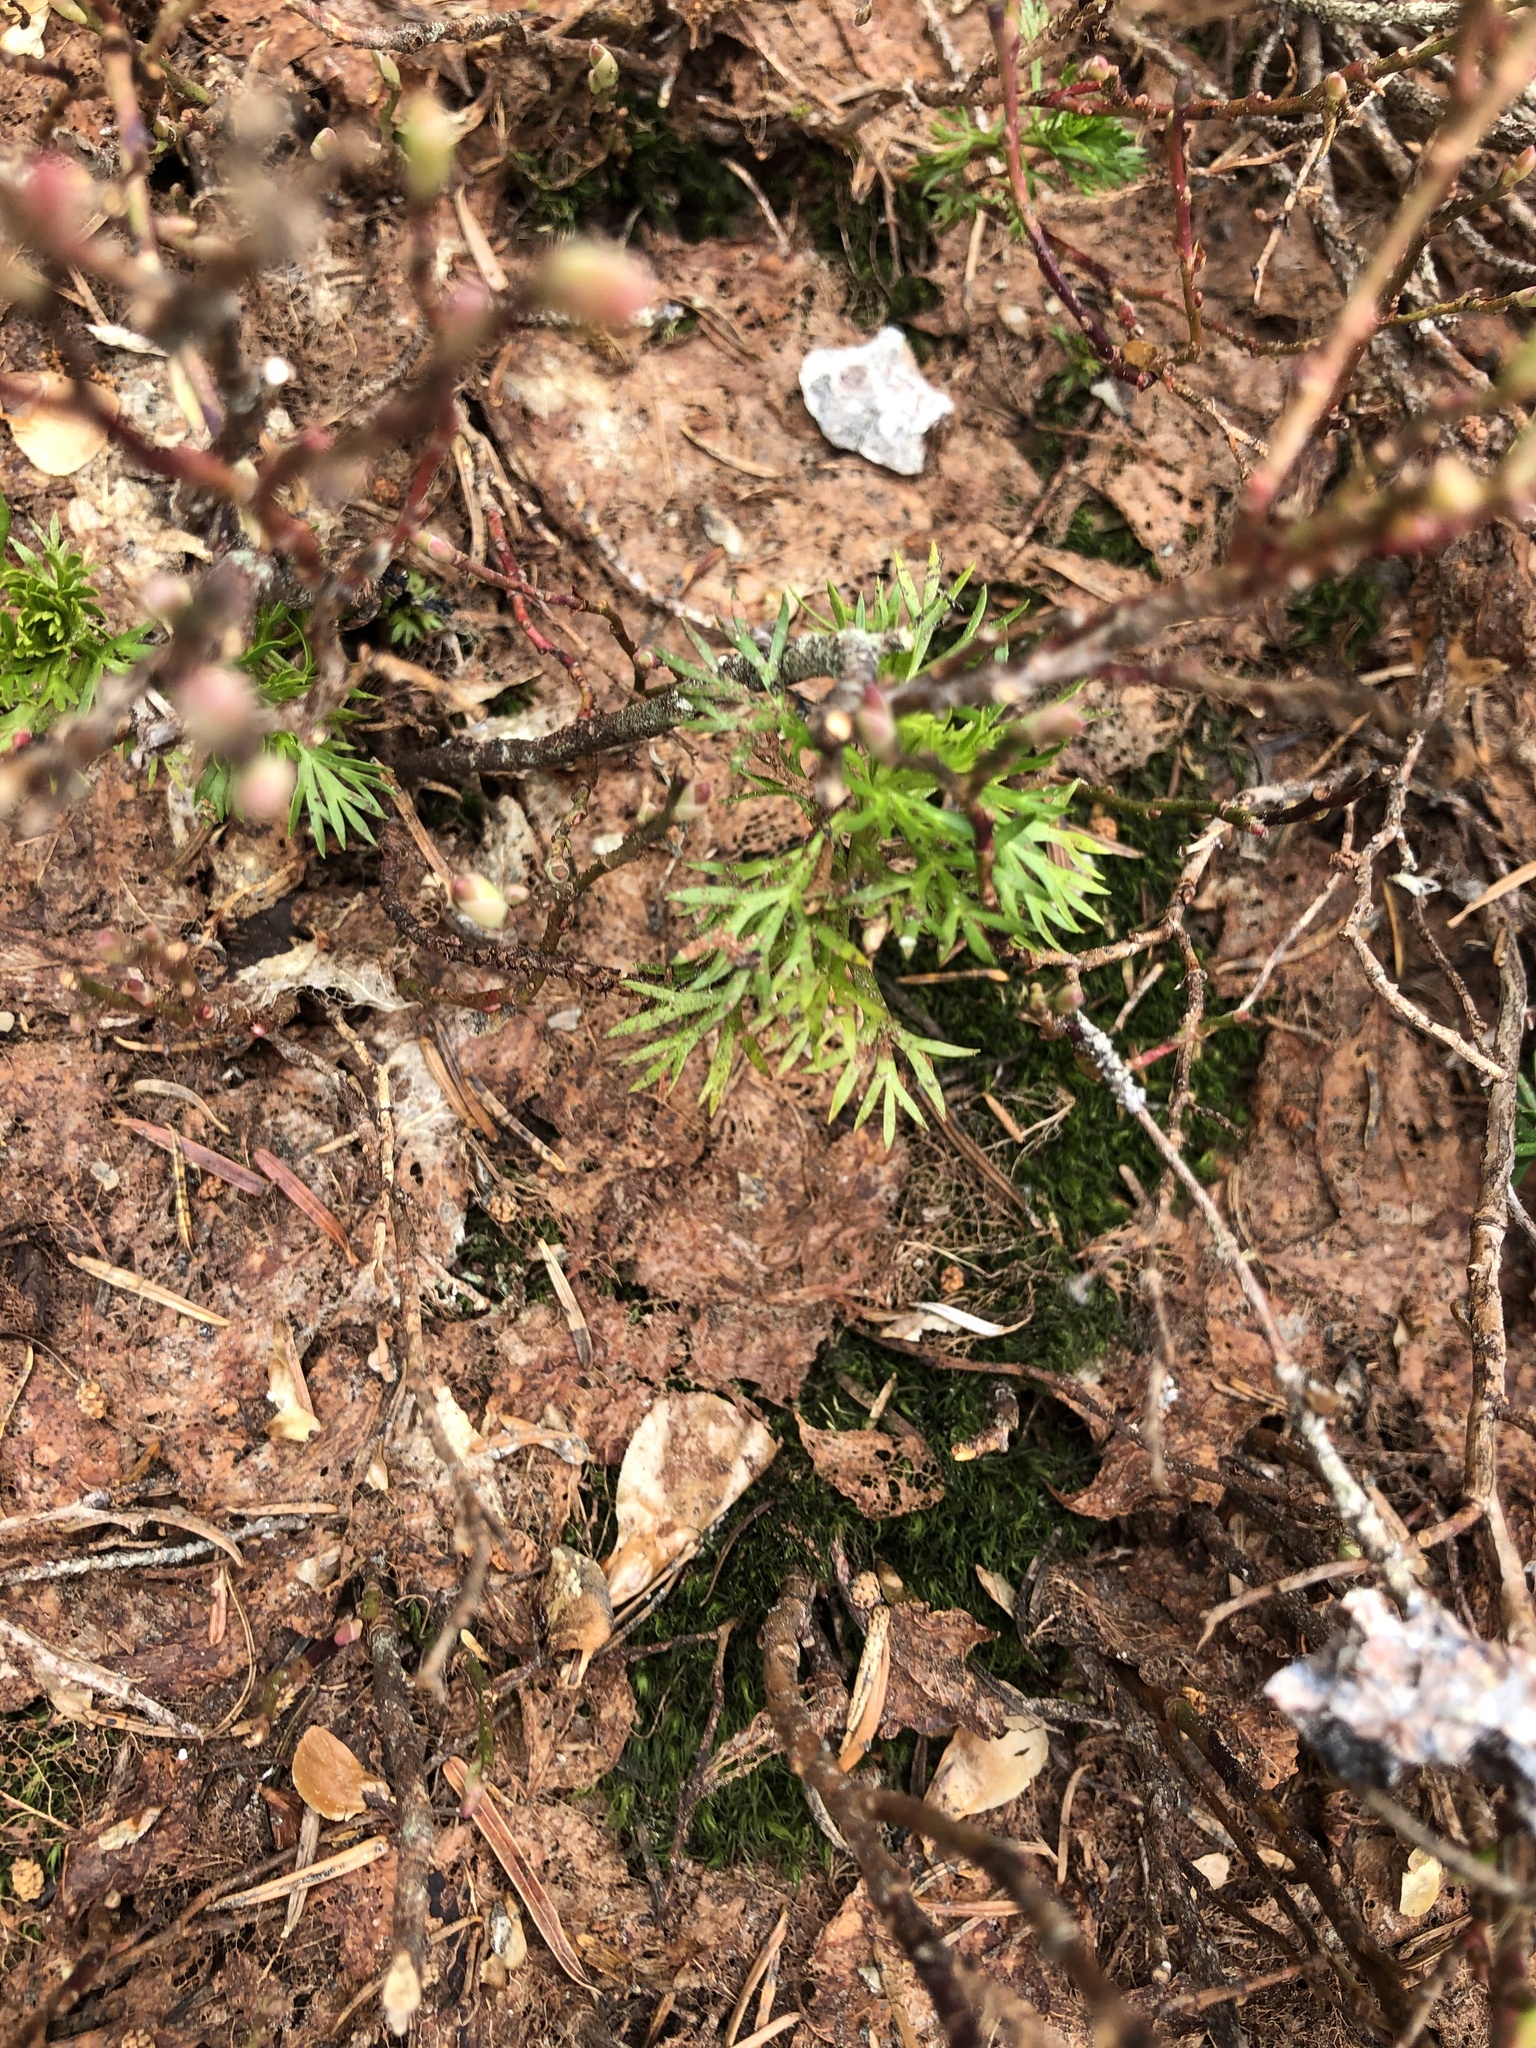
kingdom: Plantae
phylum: Tracheophyta
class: Magnoliopsida
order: Rosales
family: Rosaceae
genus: Luetkea
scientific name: Luetkea pectinata
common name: Partridgefoot
